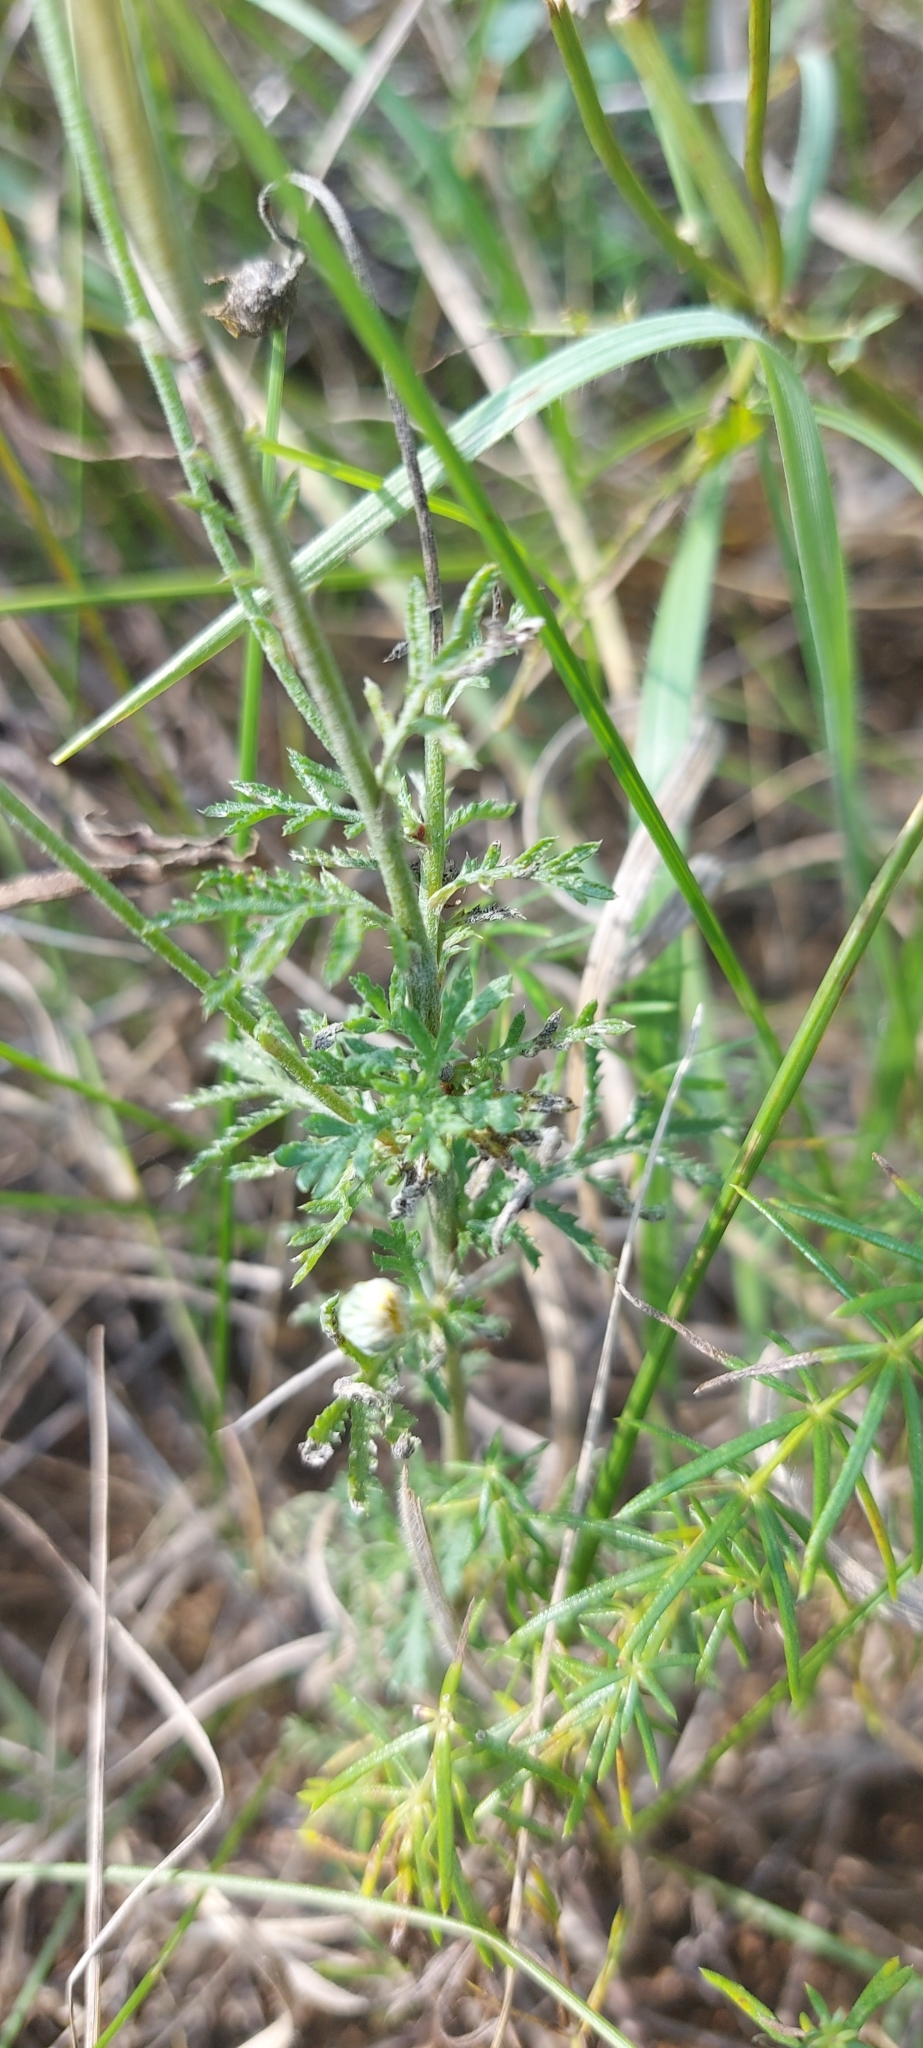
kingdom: Plantae
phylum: Tracheophyta
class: Magnoliopsida
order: Asterales
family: Asteraceae
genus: Cota
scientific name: Cota tinctoria
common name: Golden chamomile
